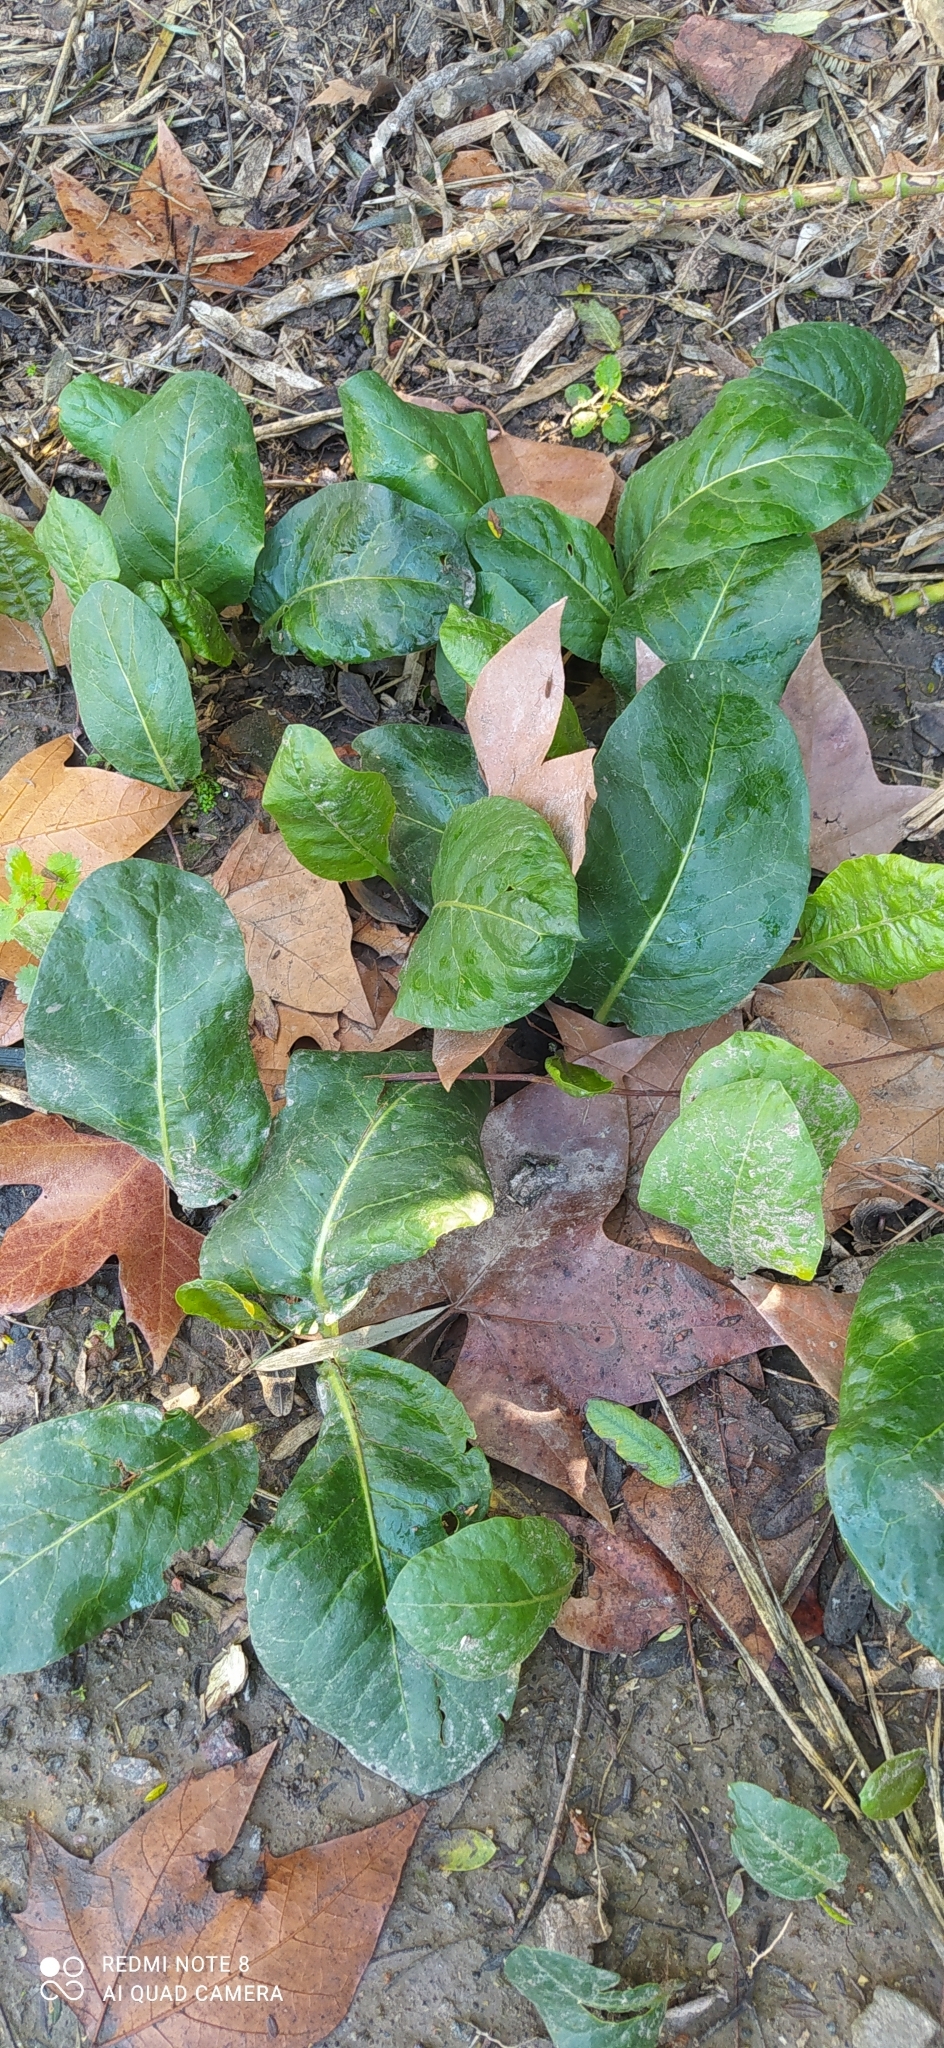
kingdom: Plantae
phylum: Tracheophyta
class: Magnoliopsida
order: Solanales
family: Solanaceae
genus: Jaborosa
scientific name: Jaborosa integrifolia
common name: Springblossom
